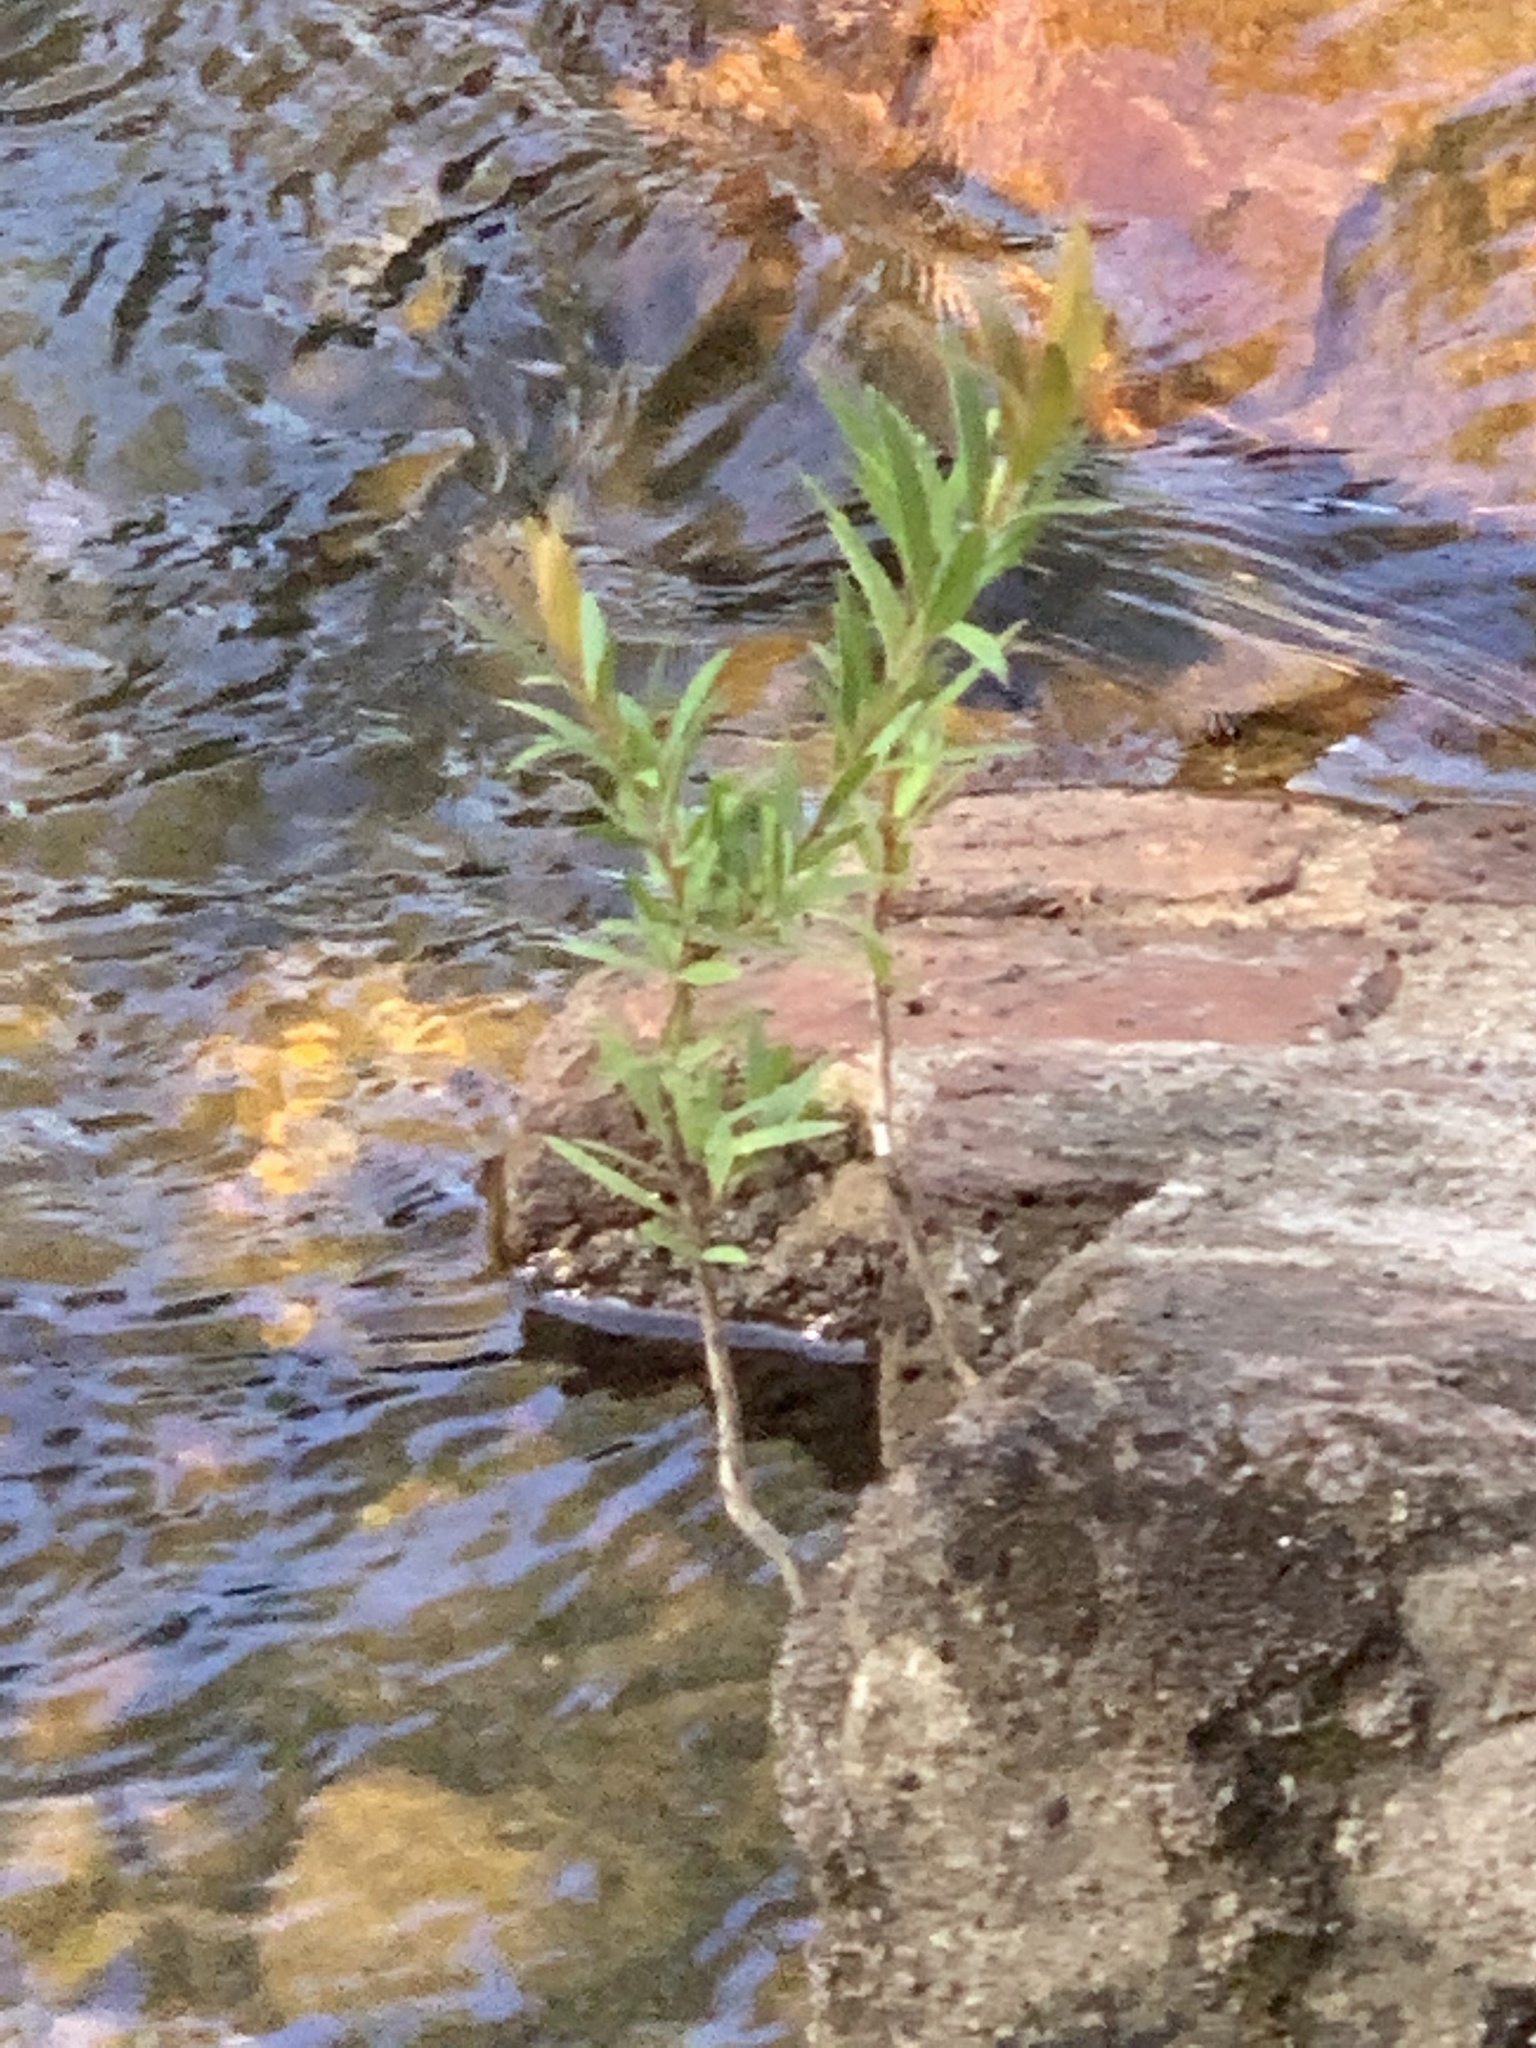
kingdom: Plantae
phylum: Tracheophyta
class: Magnoliopsida
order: Myrtales
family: Myrtaceae
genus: Callistemon
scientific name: Callistemon viminalis
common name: Drooping bottlebrush
